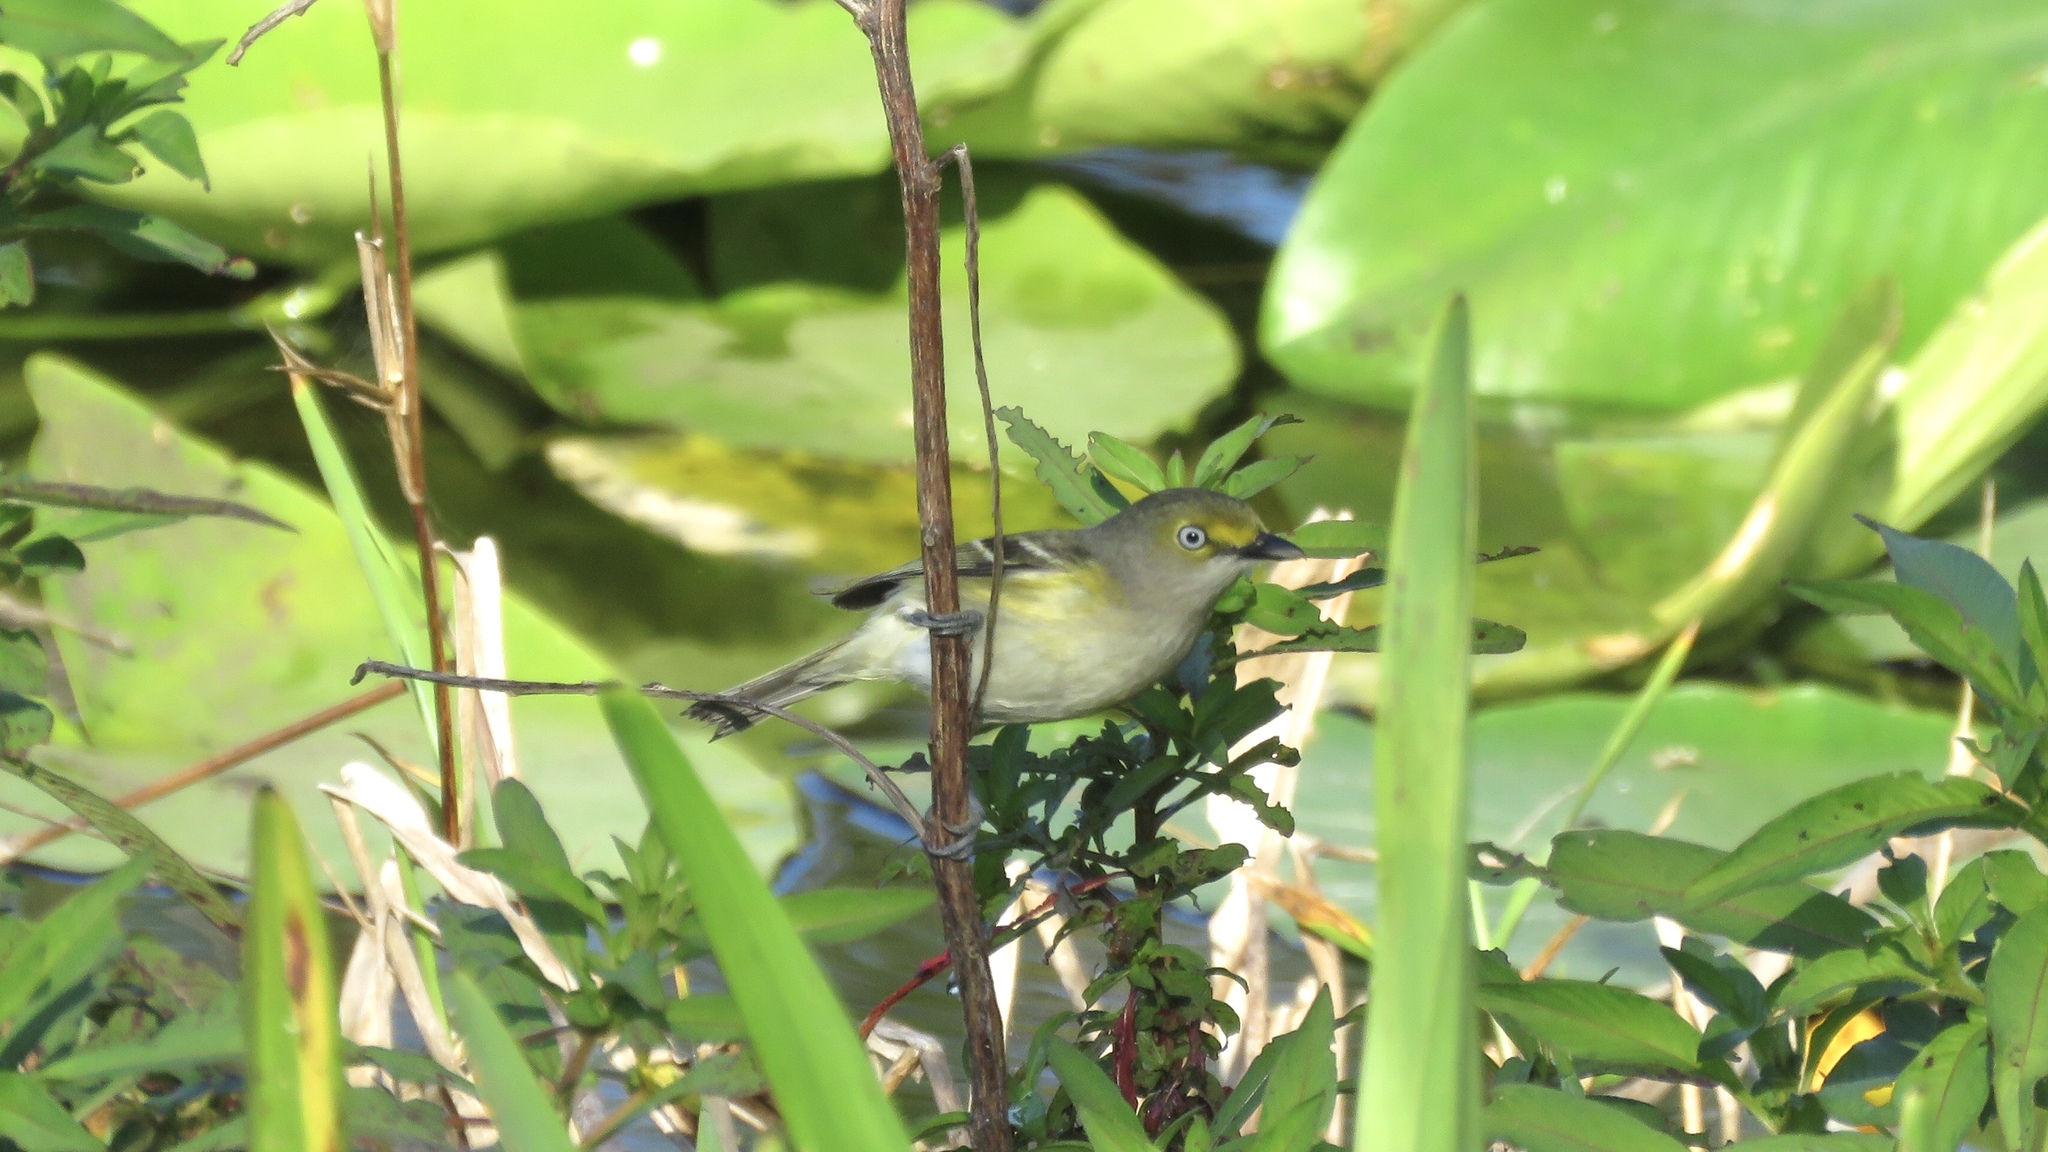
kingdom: Animalia
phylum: Chordata
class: Aves
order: Passeriformes
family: Vireonidae
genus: Vireo
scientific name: Vireo griseus
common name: White-eyed vireo
